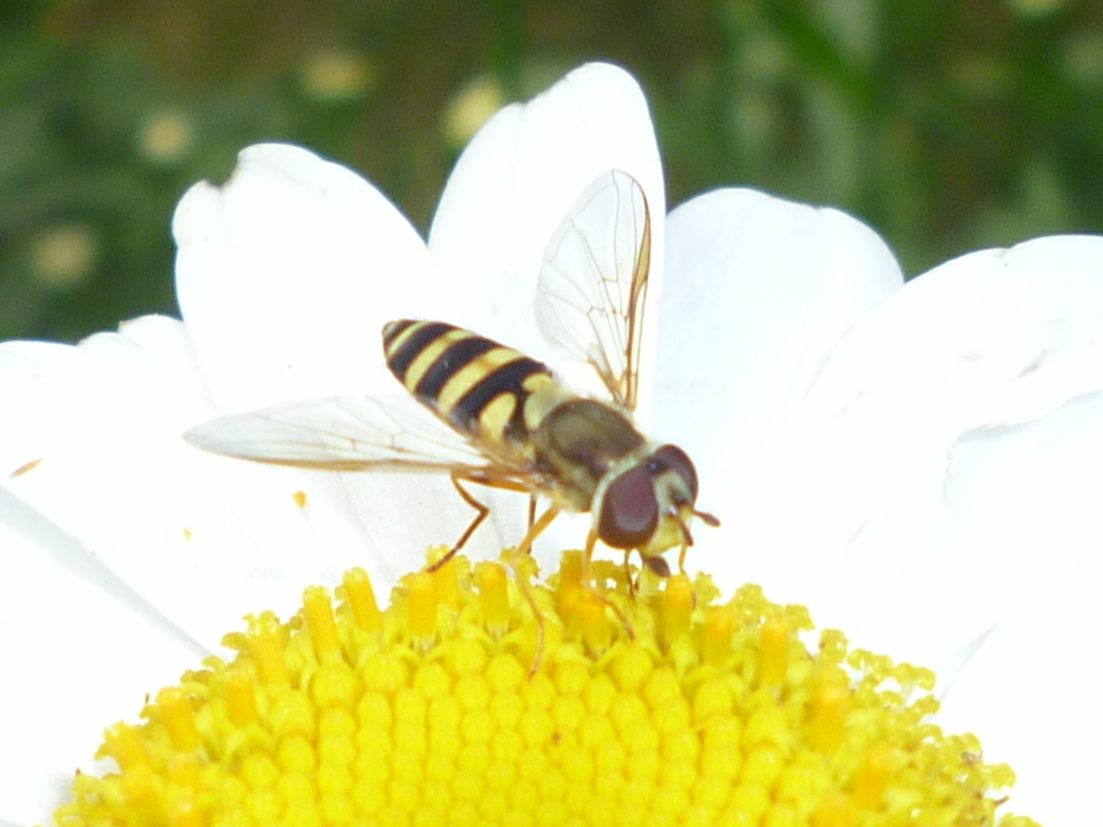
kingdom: Animalia
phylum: Arthropoda
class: Insecta
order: Diptera
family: Syrphidae
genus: Syrphus
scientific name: Syrphus rectus
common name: Yellow-legged flower fly
